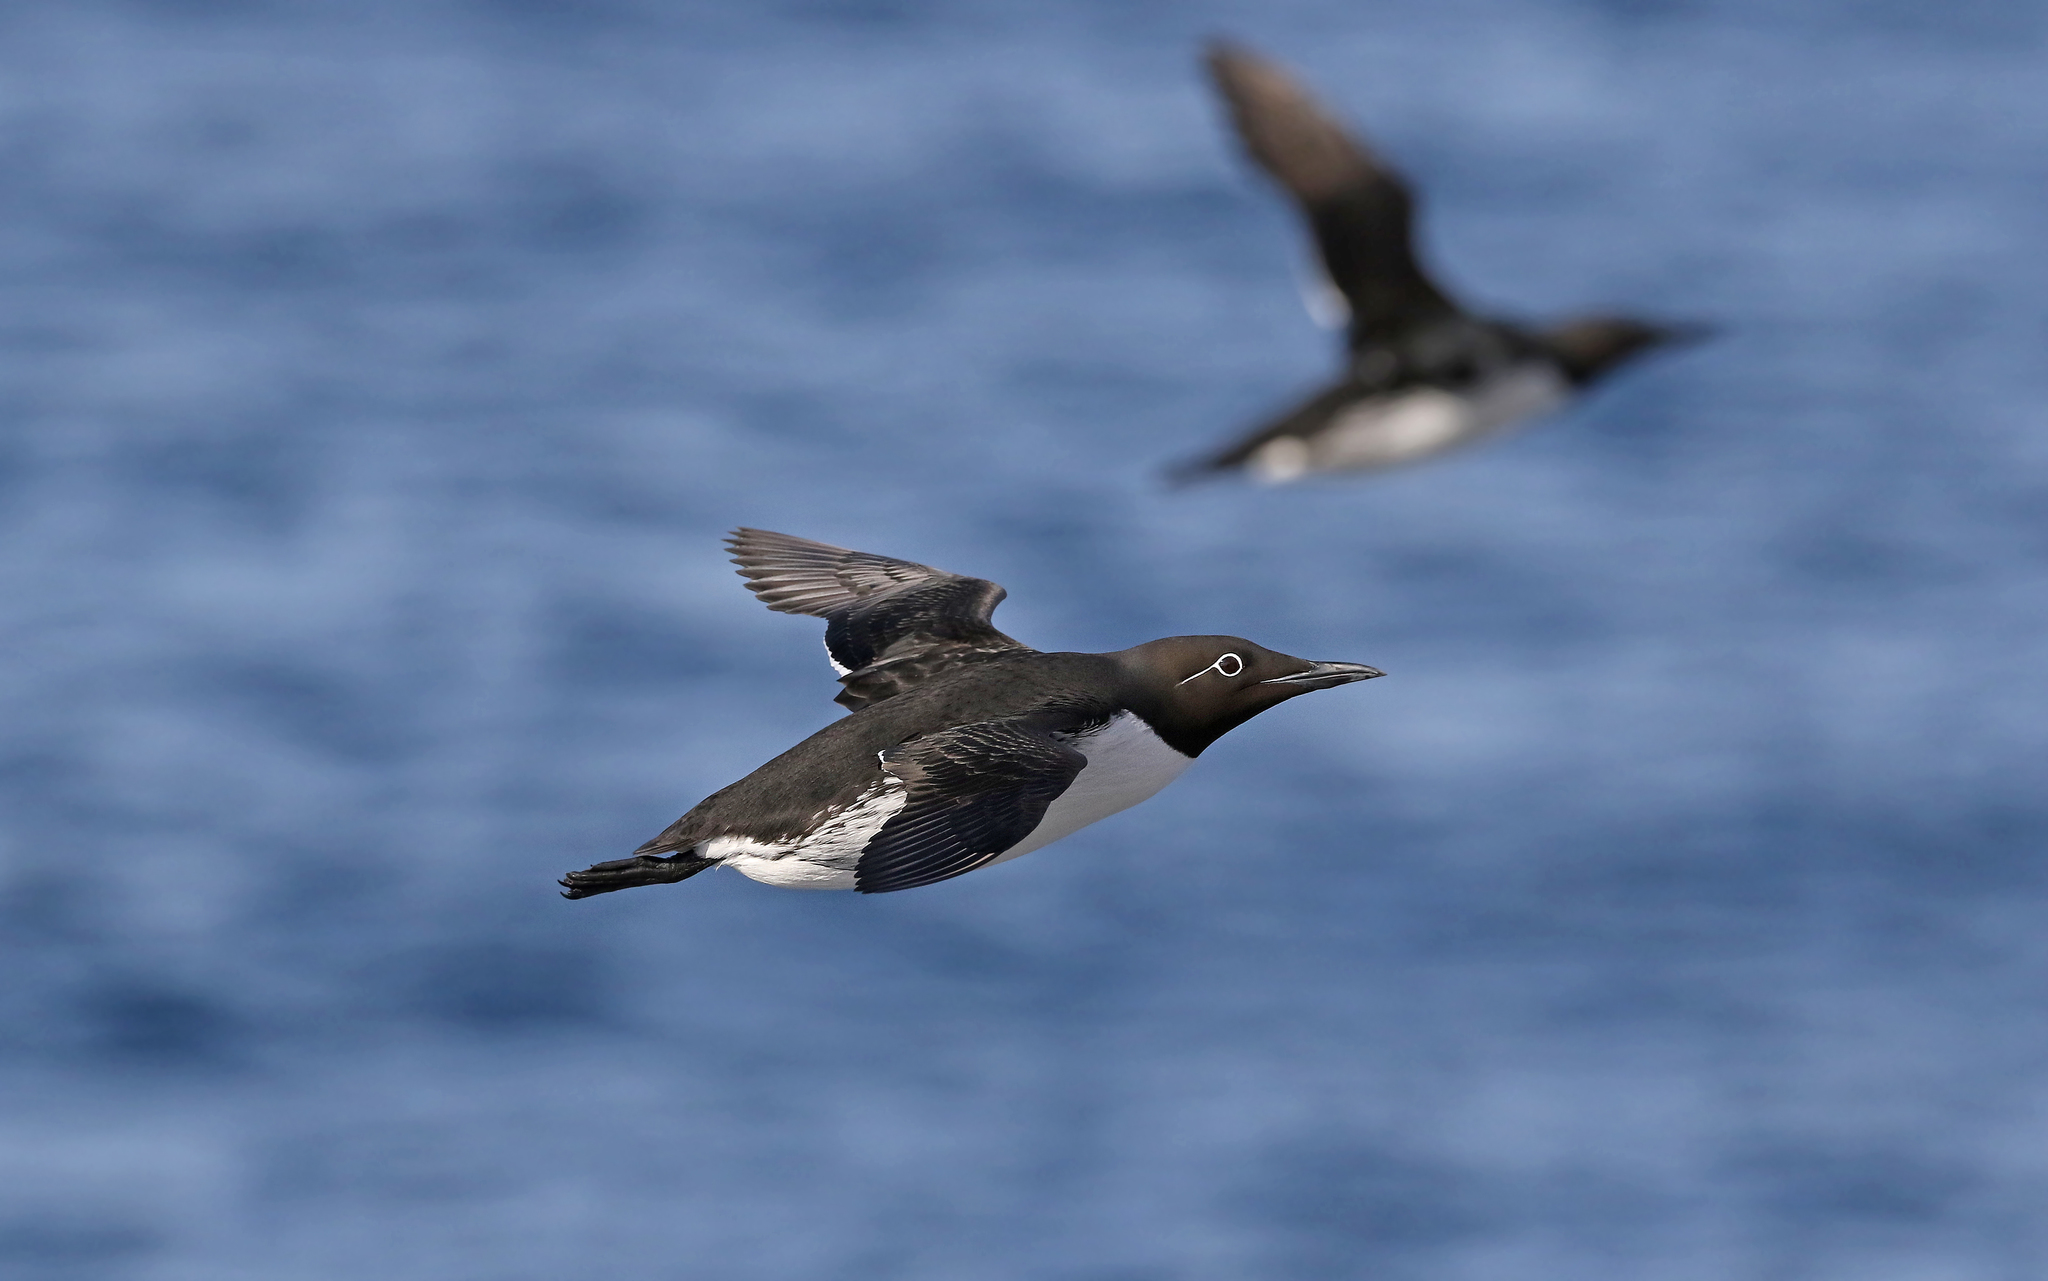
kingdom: Animalia
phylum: Chordata
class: Aves
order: Charadriiformes
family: Alcidae
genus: Uria
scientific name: Uria aalge
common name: Common murre
